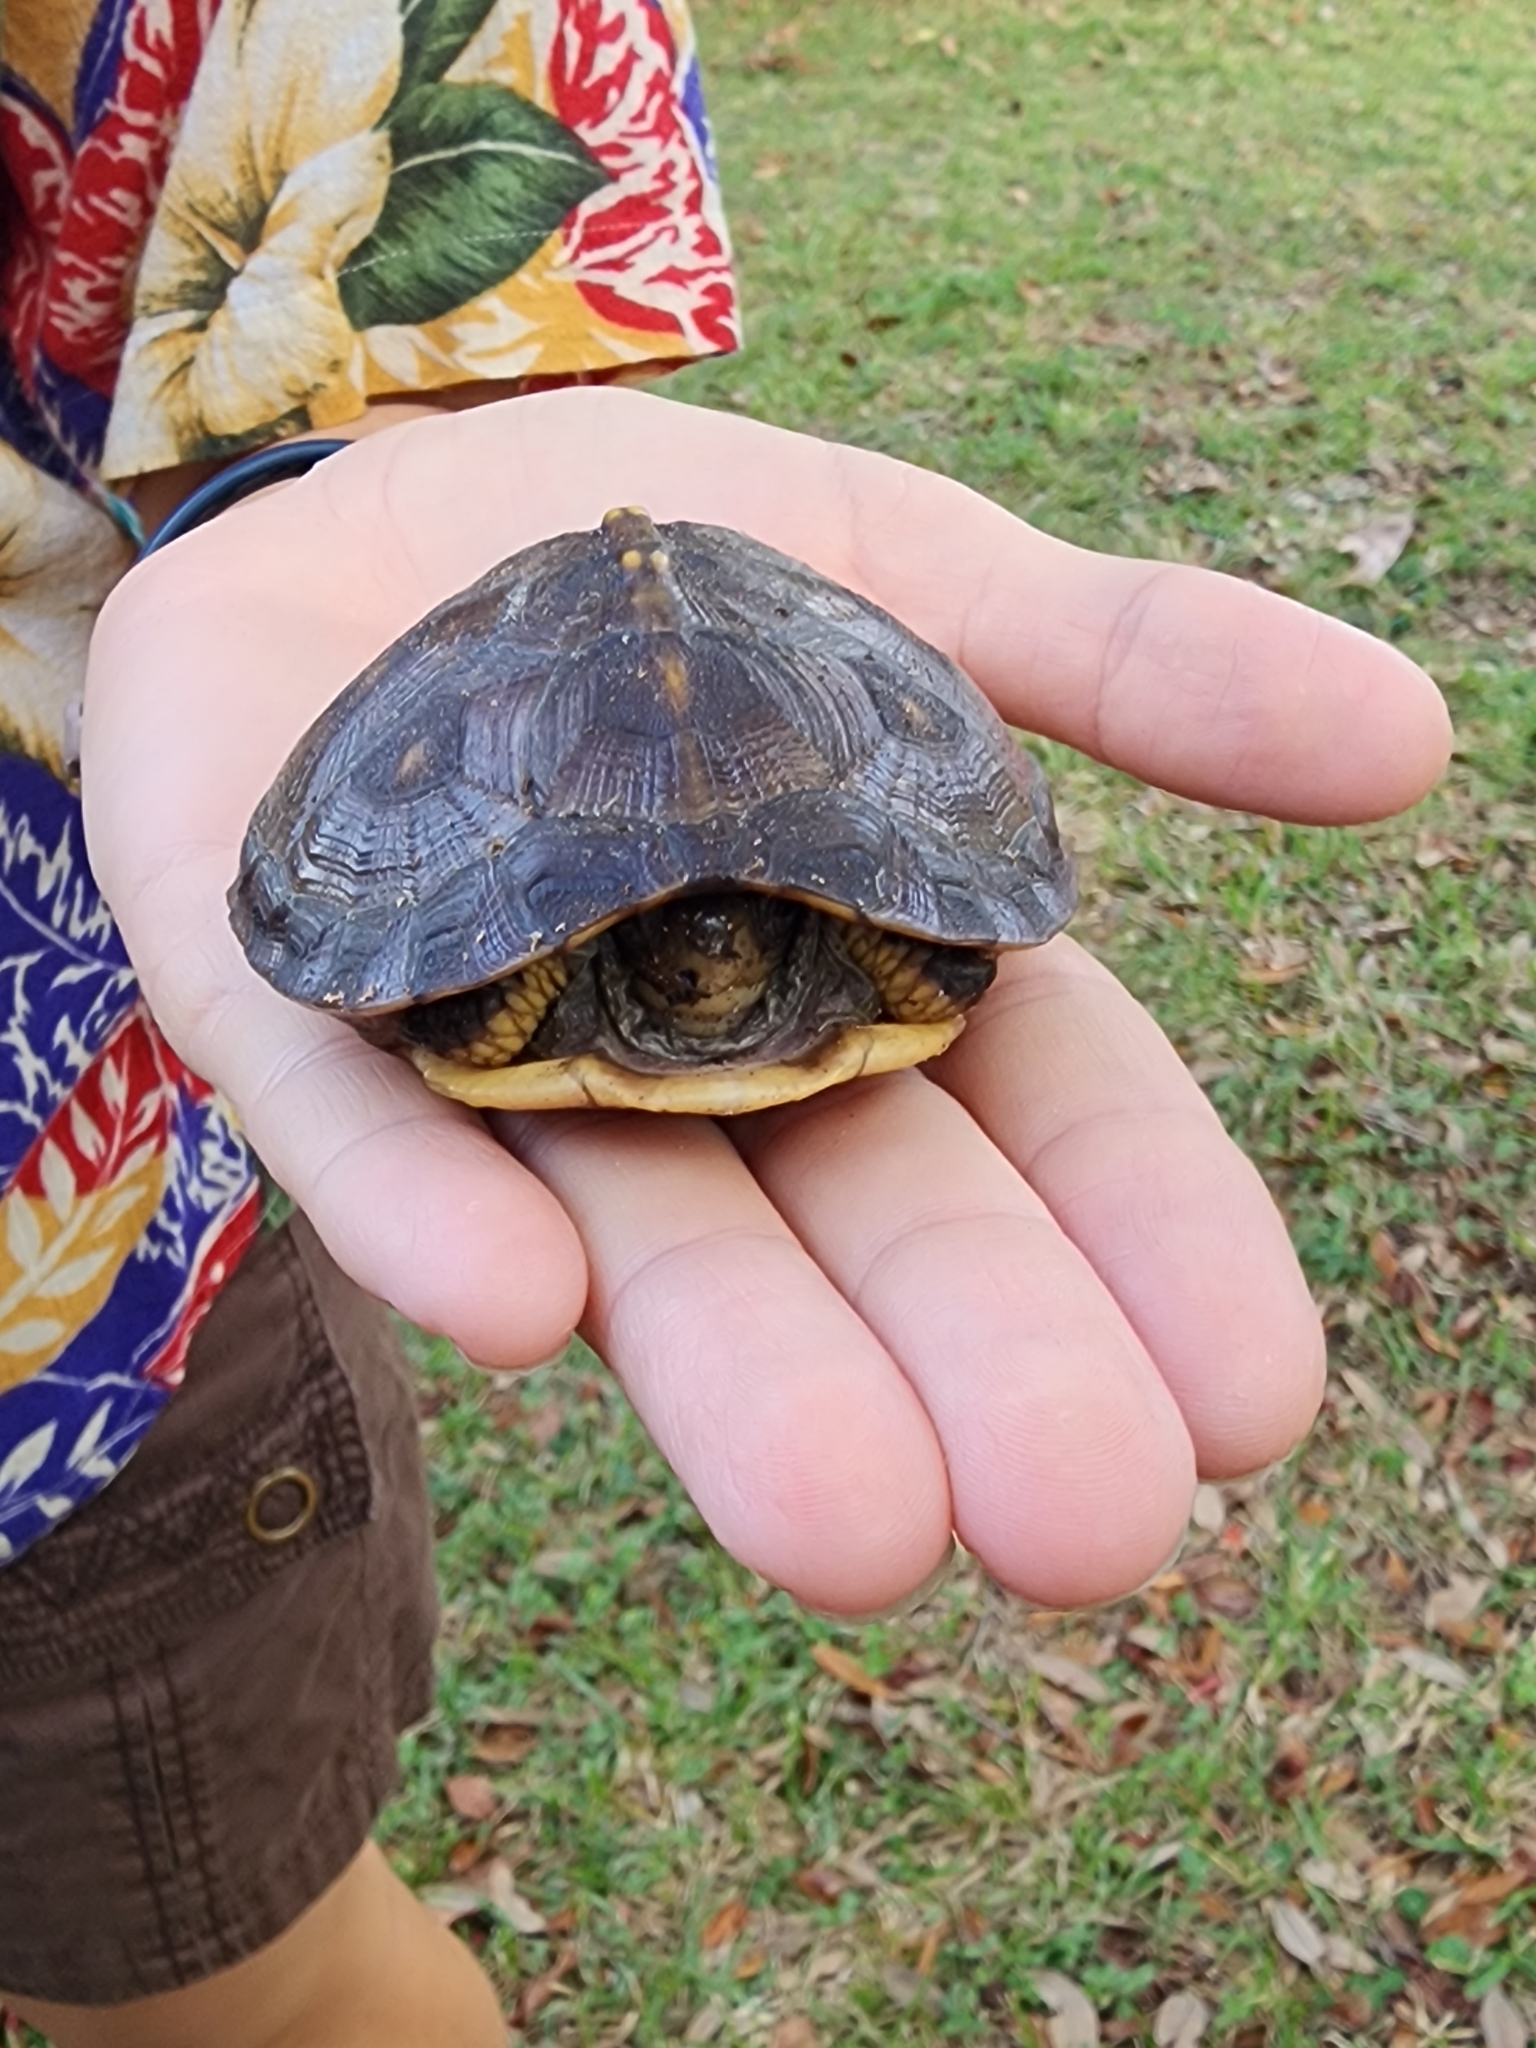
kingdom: Animalia
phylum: Chordata
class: Testudines
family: Emydidae
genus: Terrapene
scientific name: Terrapene carolina
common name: Common box turtle
